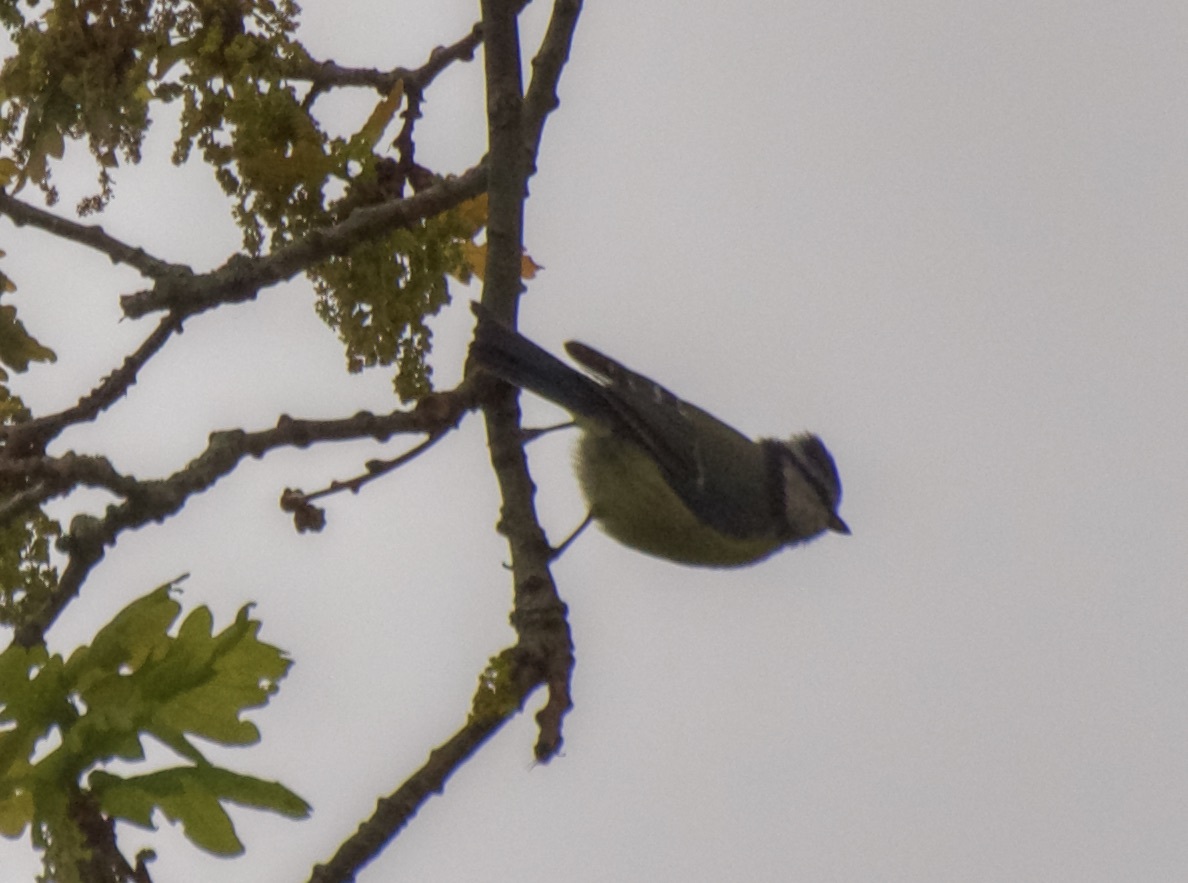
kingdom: Animalia
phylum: Chordata
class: Aves
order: Passeriformes
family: Paridae
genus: Cyanistes
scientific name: Cyanistes caeruleus
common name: Eurasian blue tit
